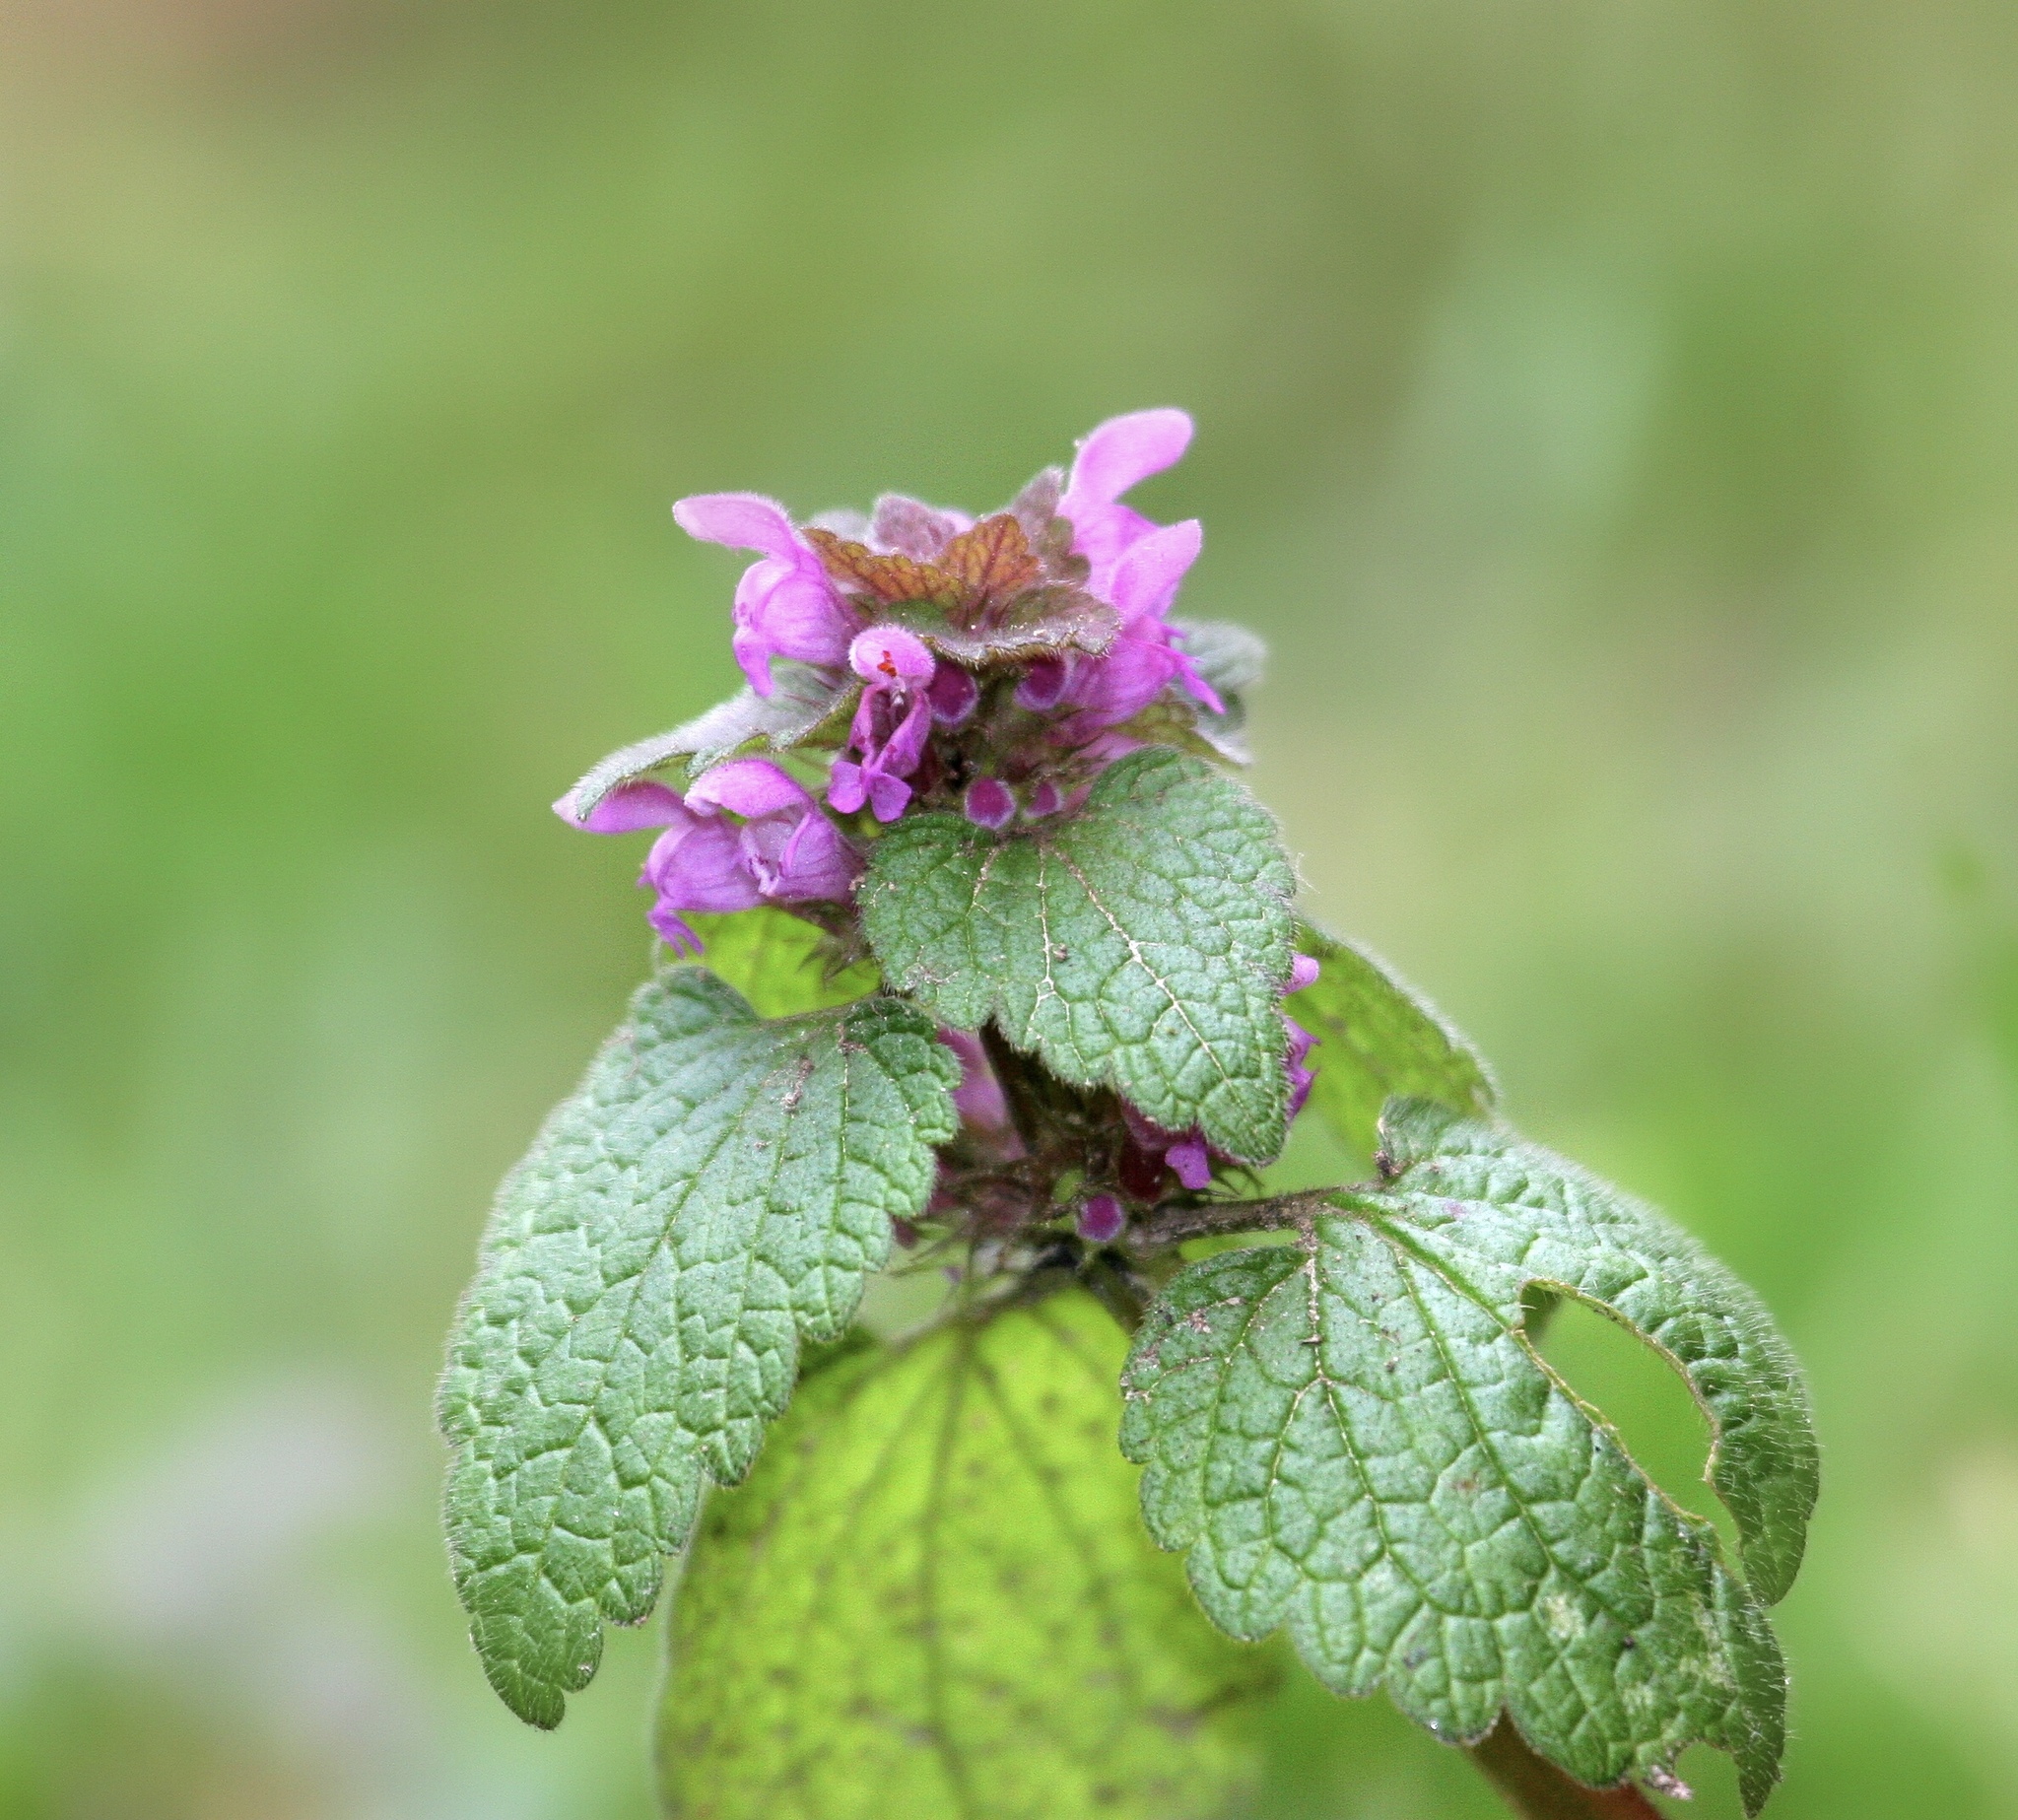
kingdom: Plantae
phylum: Tracheophyta
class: Magnoliopsida
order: Lamiales
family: Lamiaceae
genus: Lamium
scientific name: Lamium purpureum
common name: Red dead-nettle
